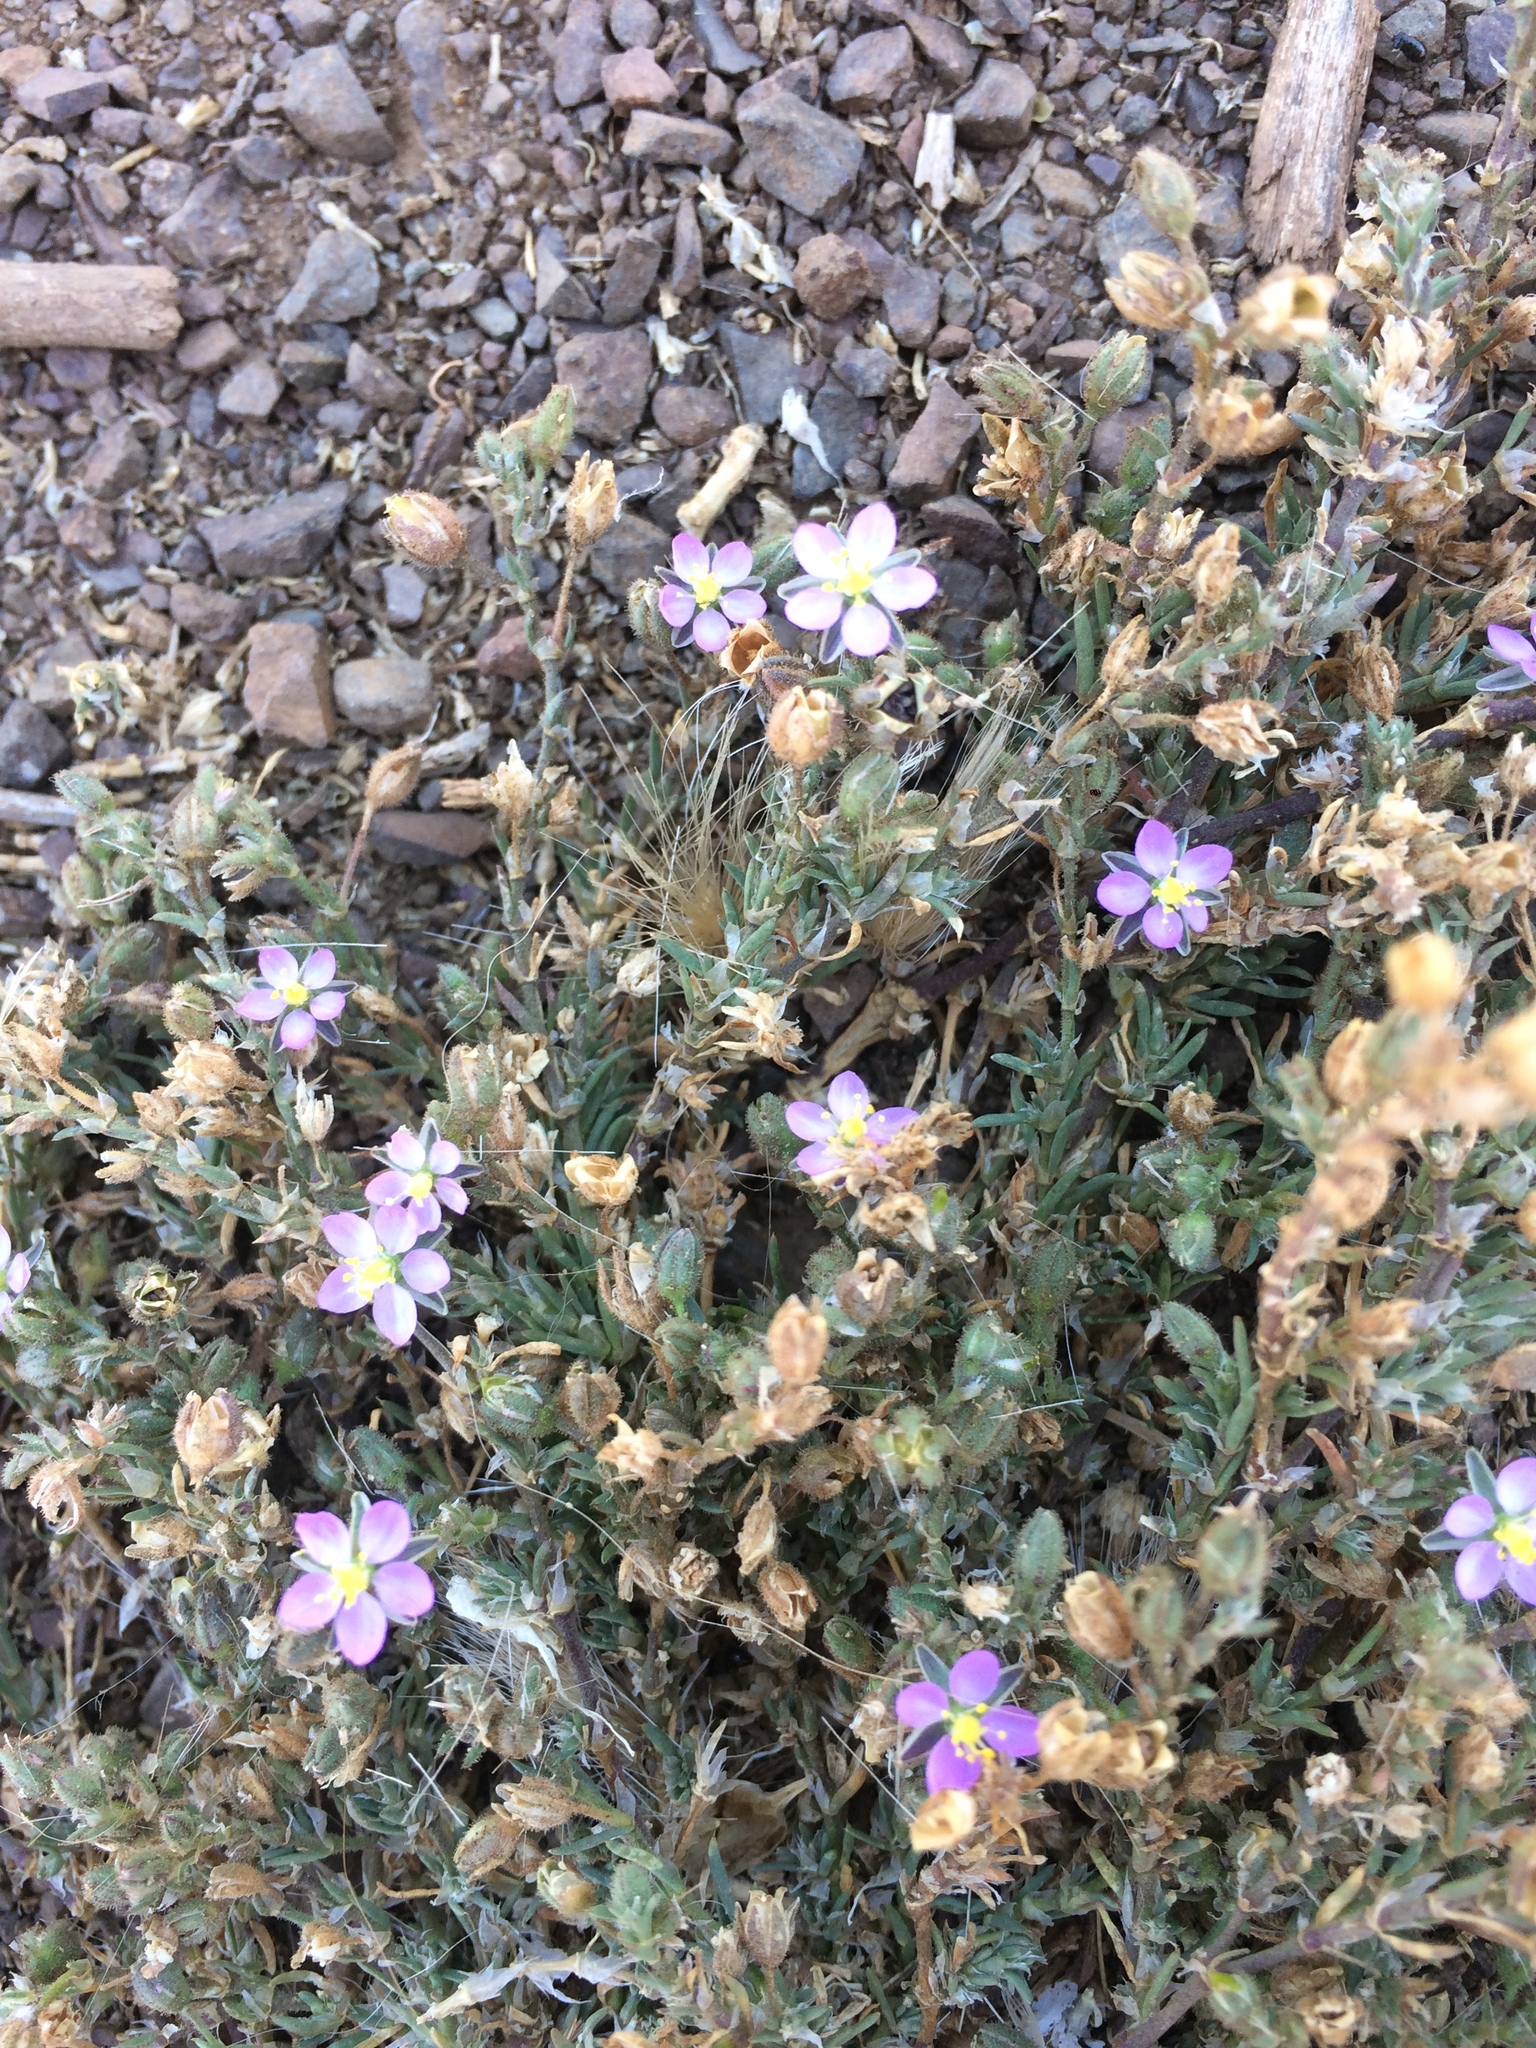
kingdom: Plantae
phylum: Tracheophyta
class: Magnoliopsida
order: Caryophyllales
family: Caryophyllaceae
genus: Spergularia
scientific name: Spergularia rubra
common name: Red sand-spurrey
